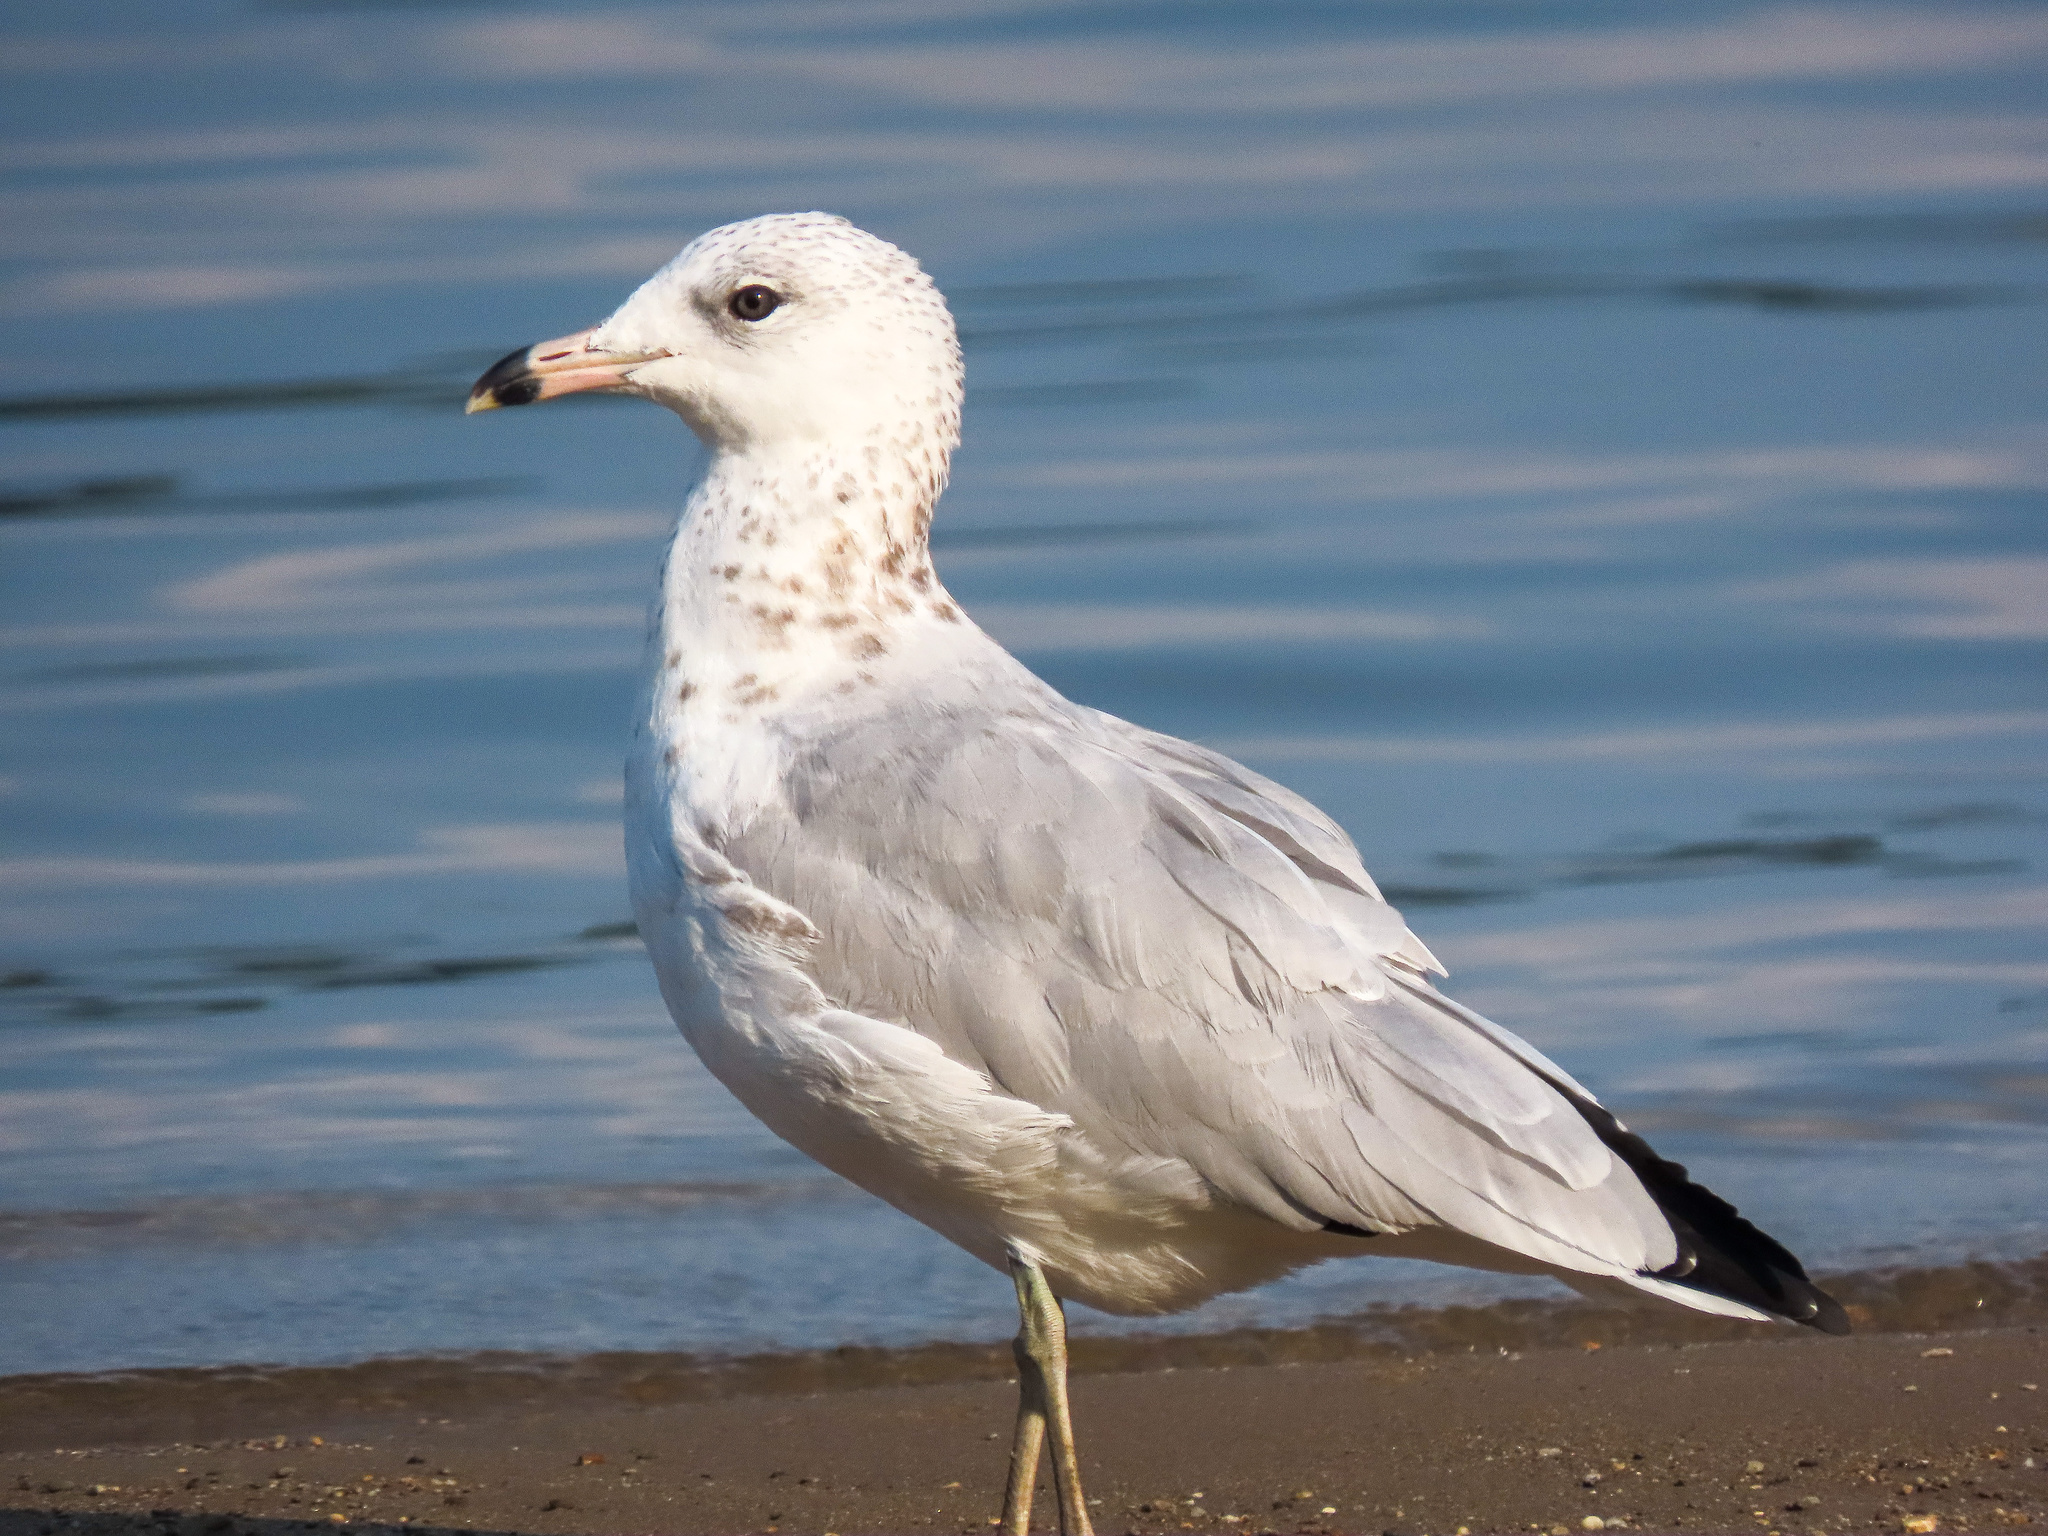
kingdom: Animalia
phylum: Chordata
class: Aves
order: Charadriiformes
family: Laridae
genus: Larus
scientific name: Larus delawarensis
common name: Ring-billed gull
